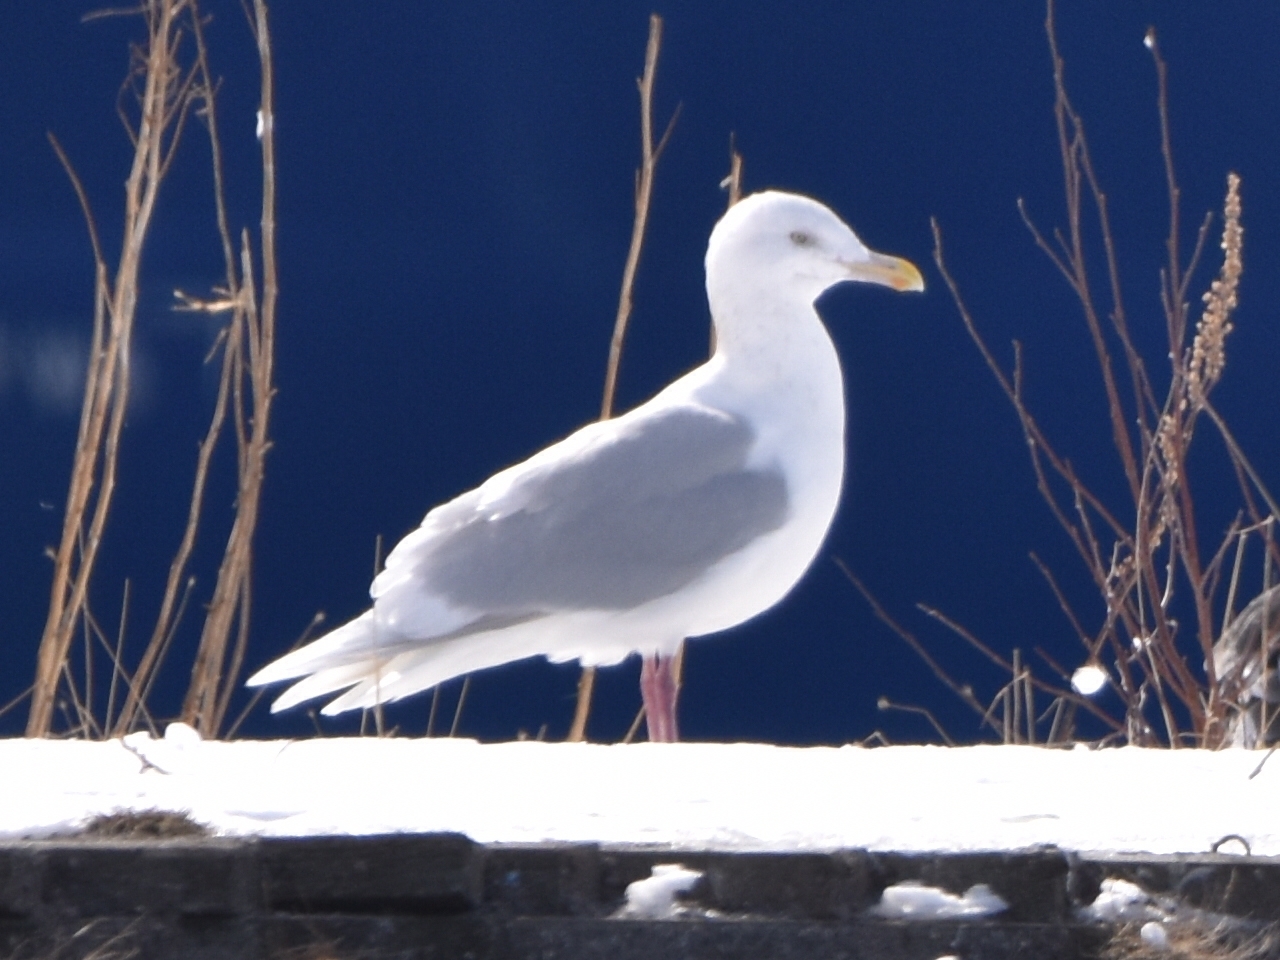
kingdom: Animalia
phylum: Chordata
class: Aves
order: Charadriiformes
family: Laridae
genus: Larus
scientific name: Larus hyperboreus
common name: Glaucous gull
